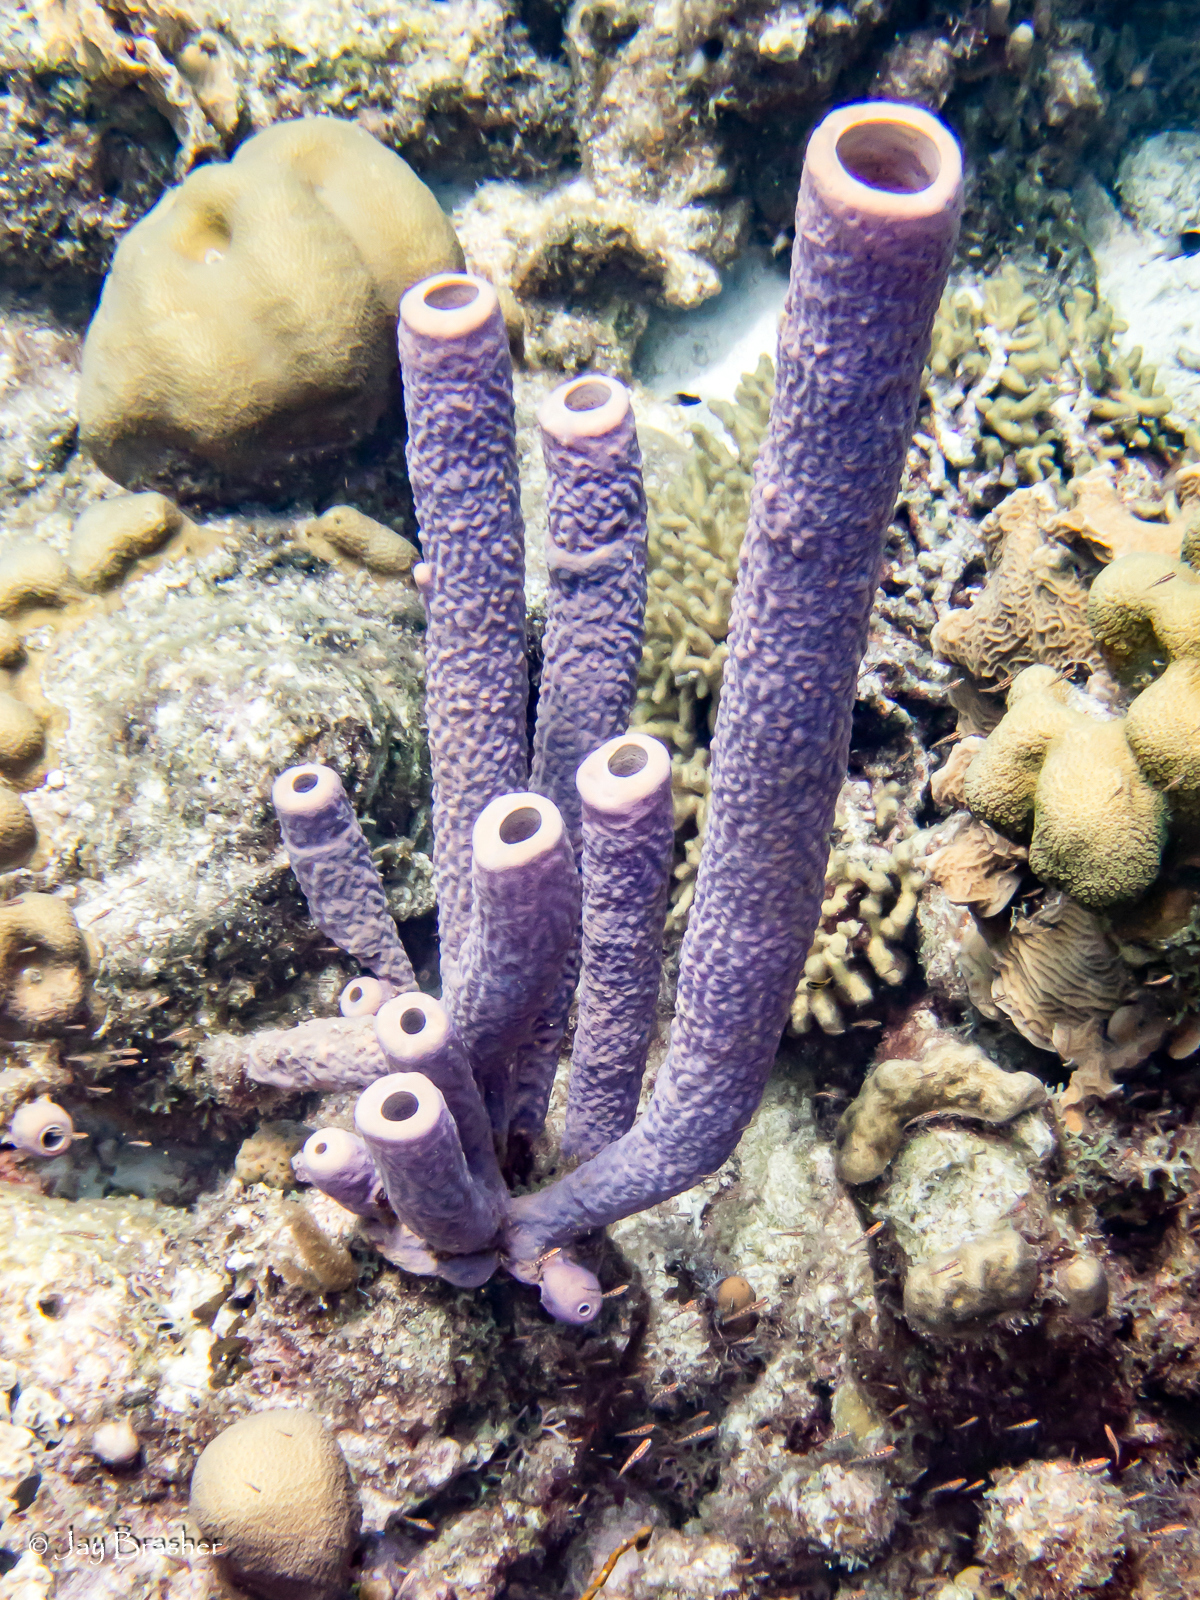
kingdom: Animalia
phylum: Porifera
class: Demospongiae
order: Verongiida
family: Aplysinidae
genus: Aplysina
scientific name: Aplysina archeri
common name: Stove-pipe sponge
